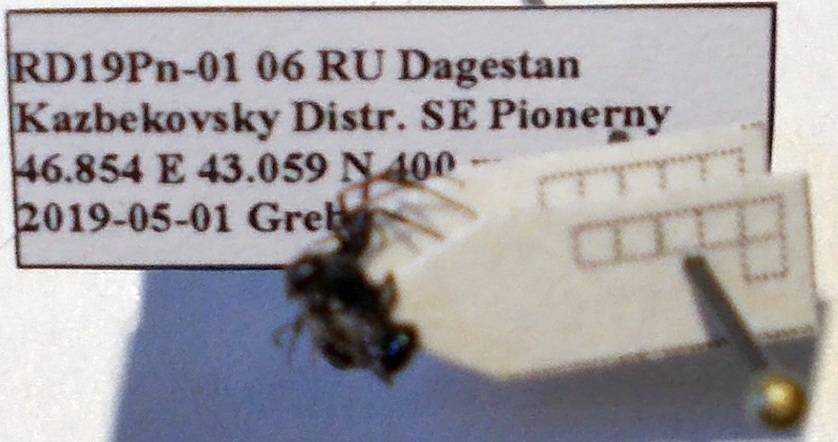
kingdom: Animalia
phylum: Arthropoda
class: Insecta
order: Hymenoptera
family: Formicidae
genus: Camponotus
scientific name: Camponotus piceus
